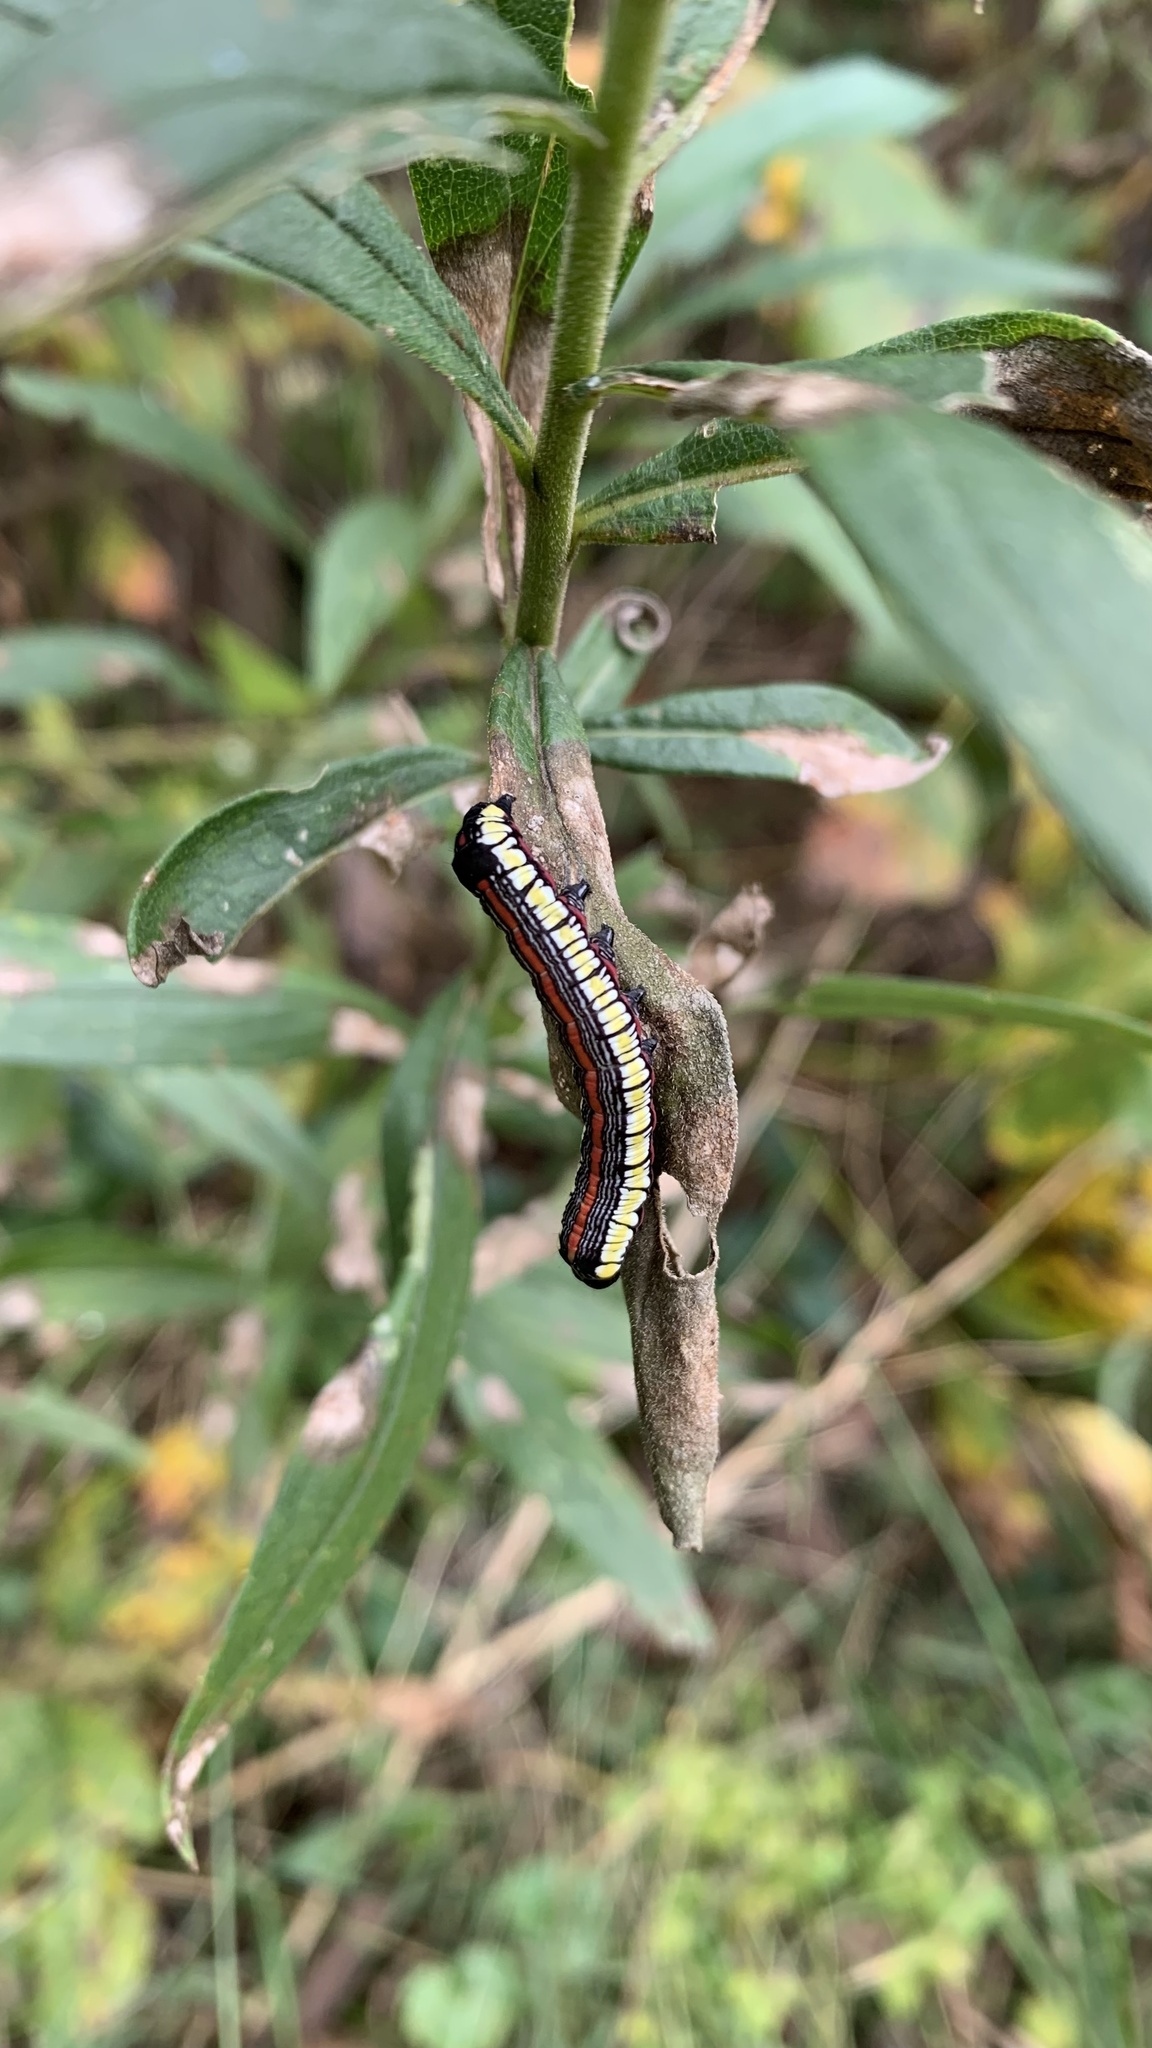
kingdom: Animalia
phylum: Arthropoda
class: Insecta
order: Lepidoptera
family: Noctuidae
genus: Cucullia
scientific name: Cucullia convexipennis
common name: Brown-hooded owlet
